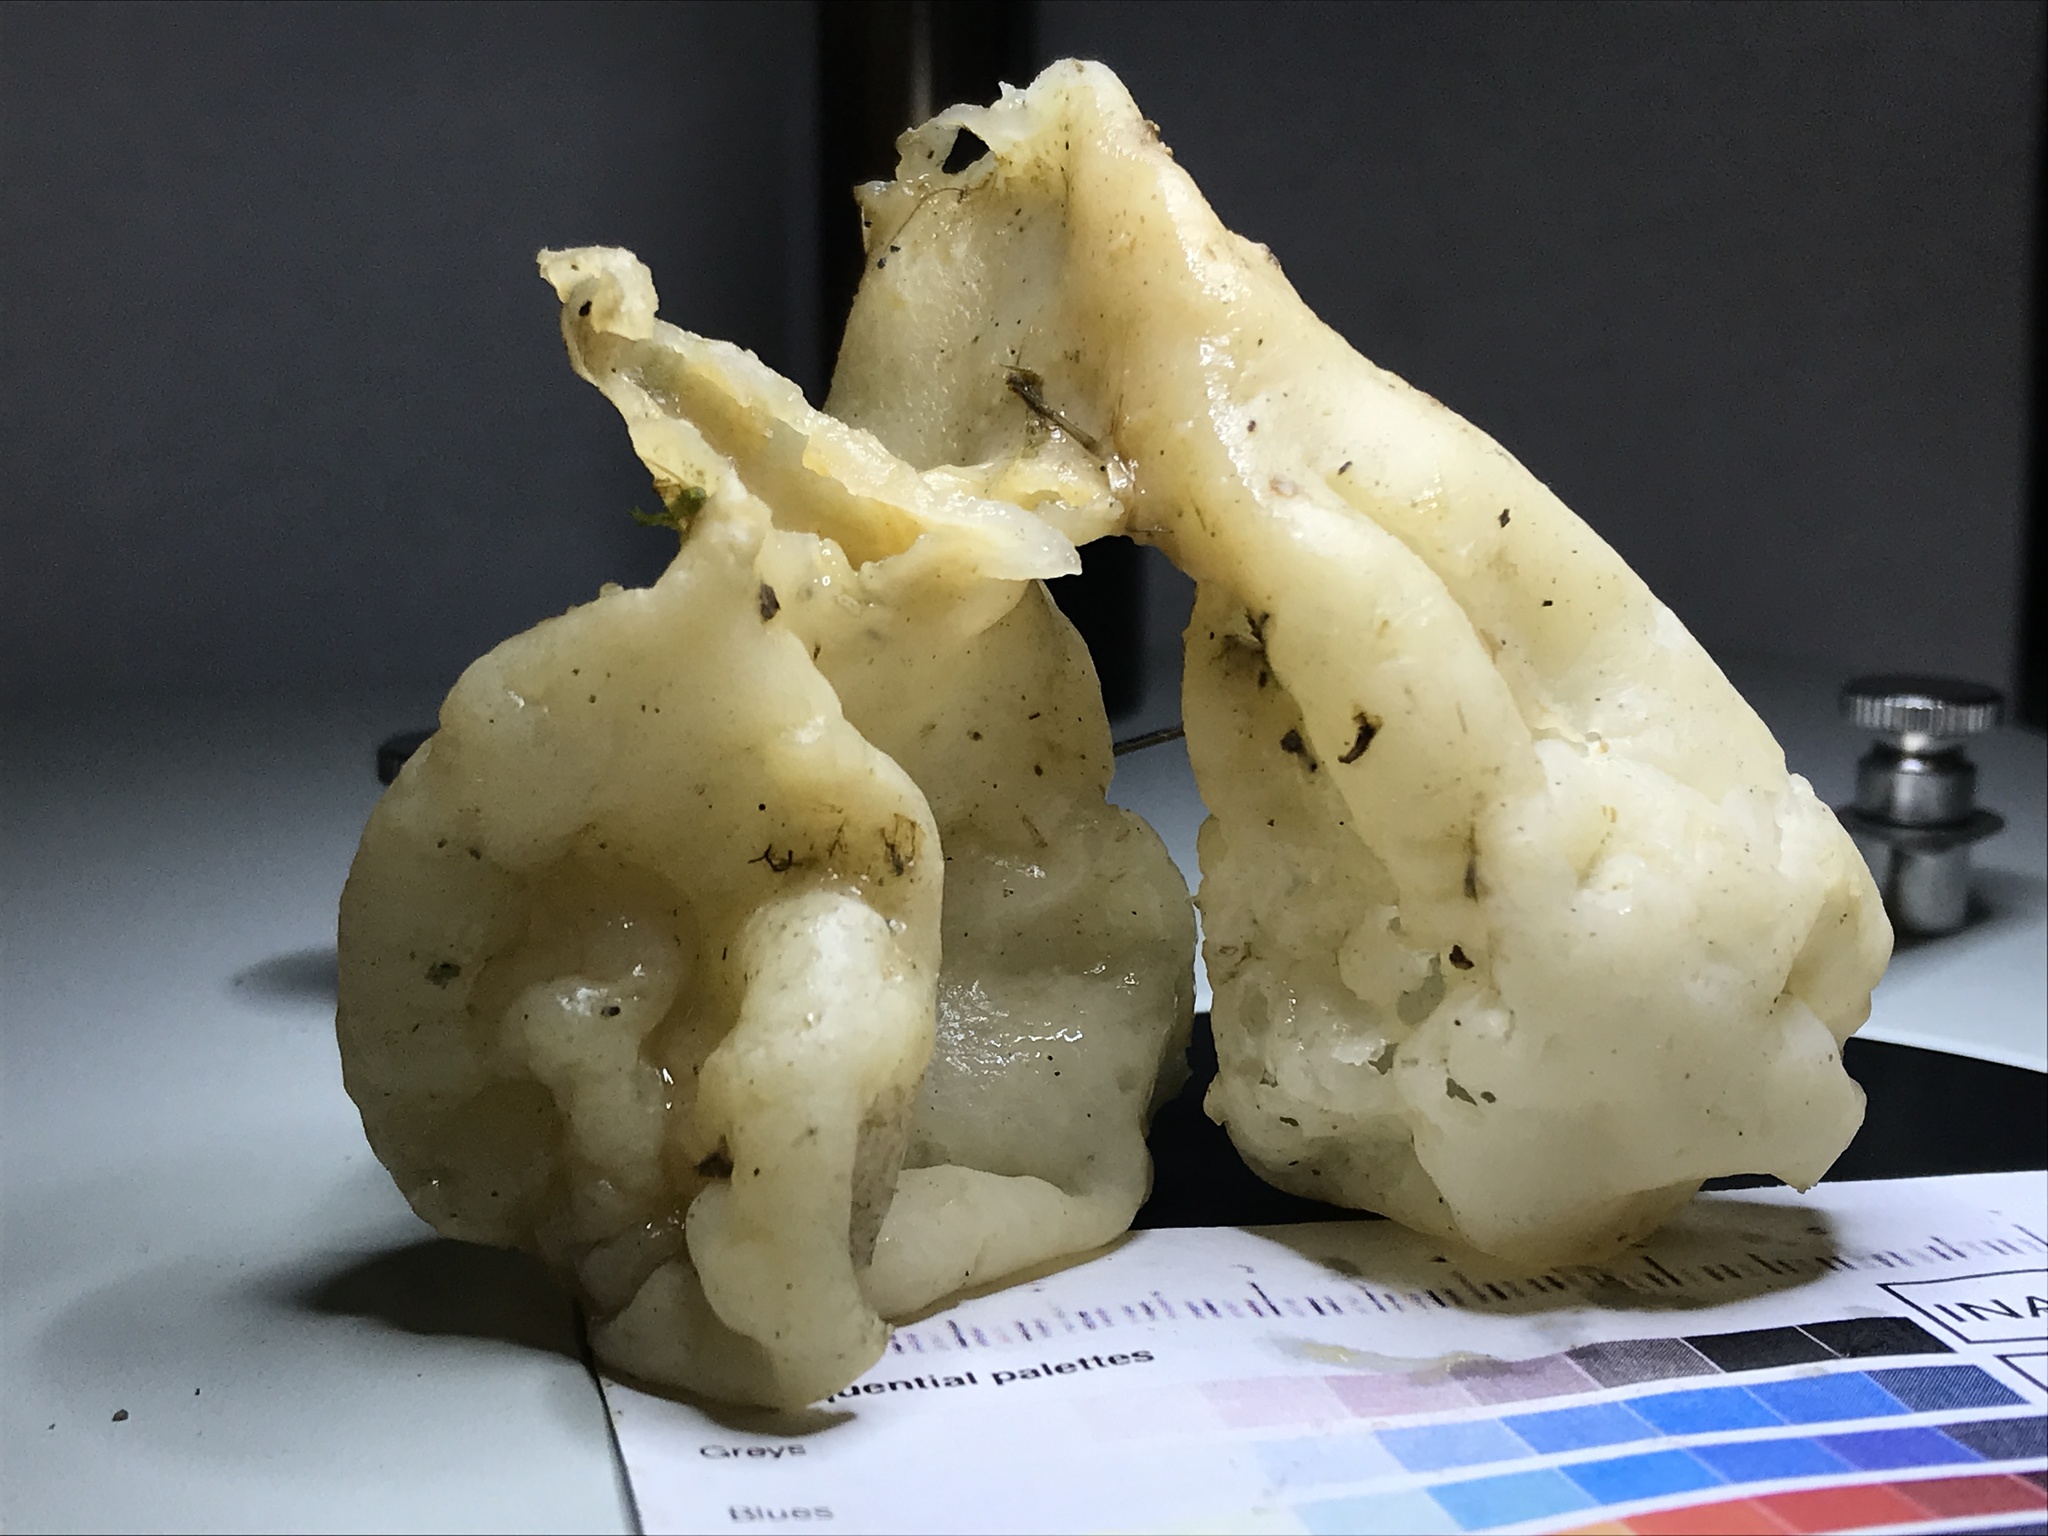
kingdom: Fungi
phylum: Basidiomycota
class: Agaricomycetes
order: Sebacinales
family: Sebacinaceae
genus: Sebacina
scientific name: Sebacina sparassoidea
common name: White coral jelly fungus
